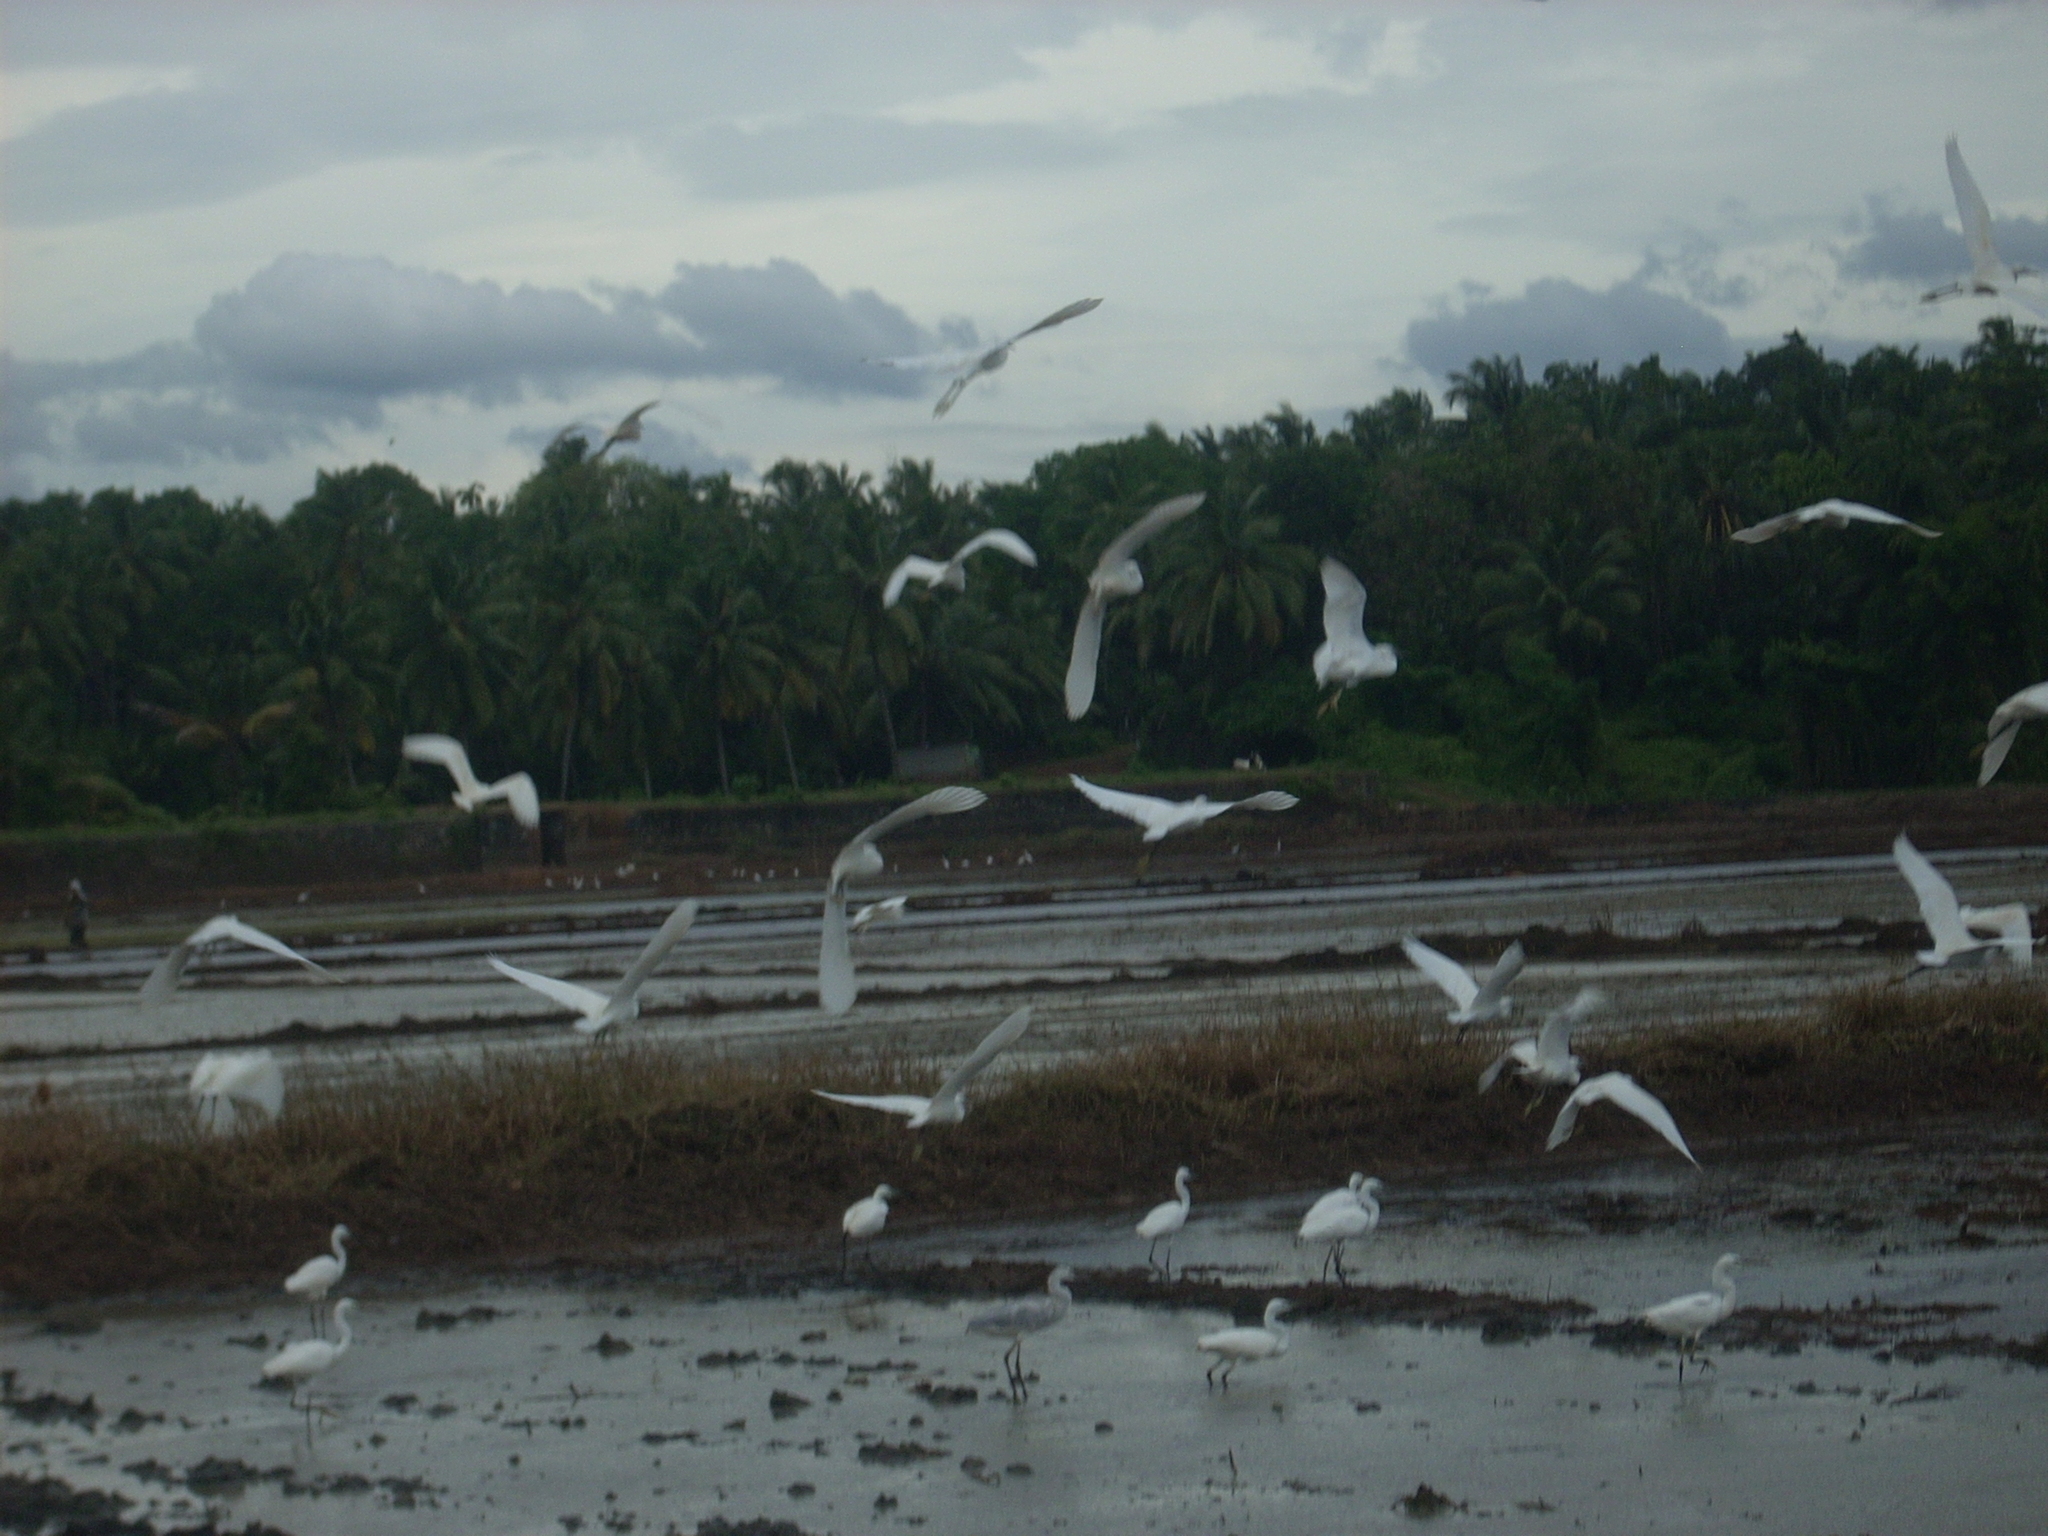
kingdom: Animalia
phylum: Chordata
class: Aves
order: Pelecaniformes
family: Ardeidae
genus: Egretta
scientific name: Egretta garzetta
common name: Little egret
